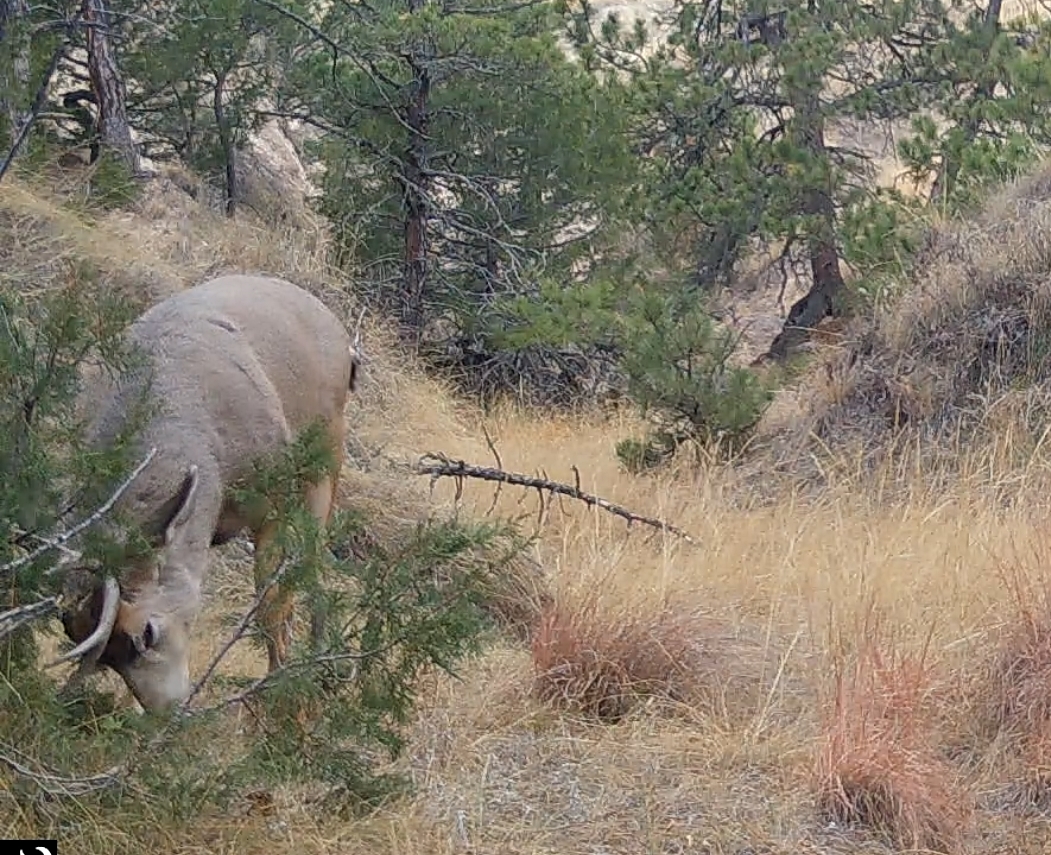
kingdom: Animalia
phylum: Chordata
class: Mammalia
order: Artiodactyla
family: Cervidae
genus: Odocoileus
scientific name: Odocoileus hemionus
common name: Mule deer
